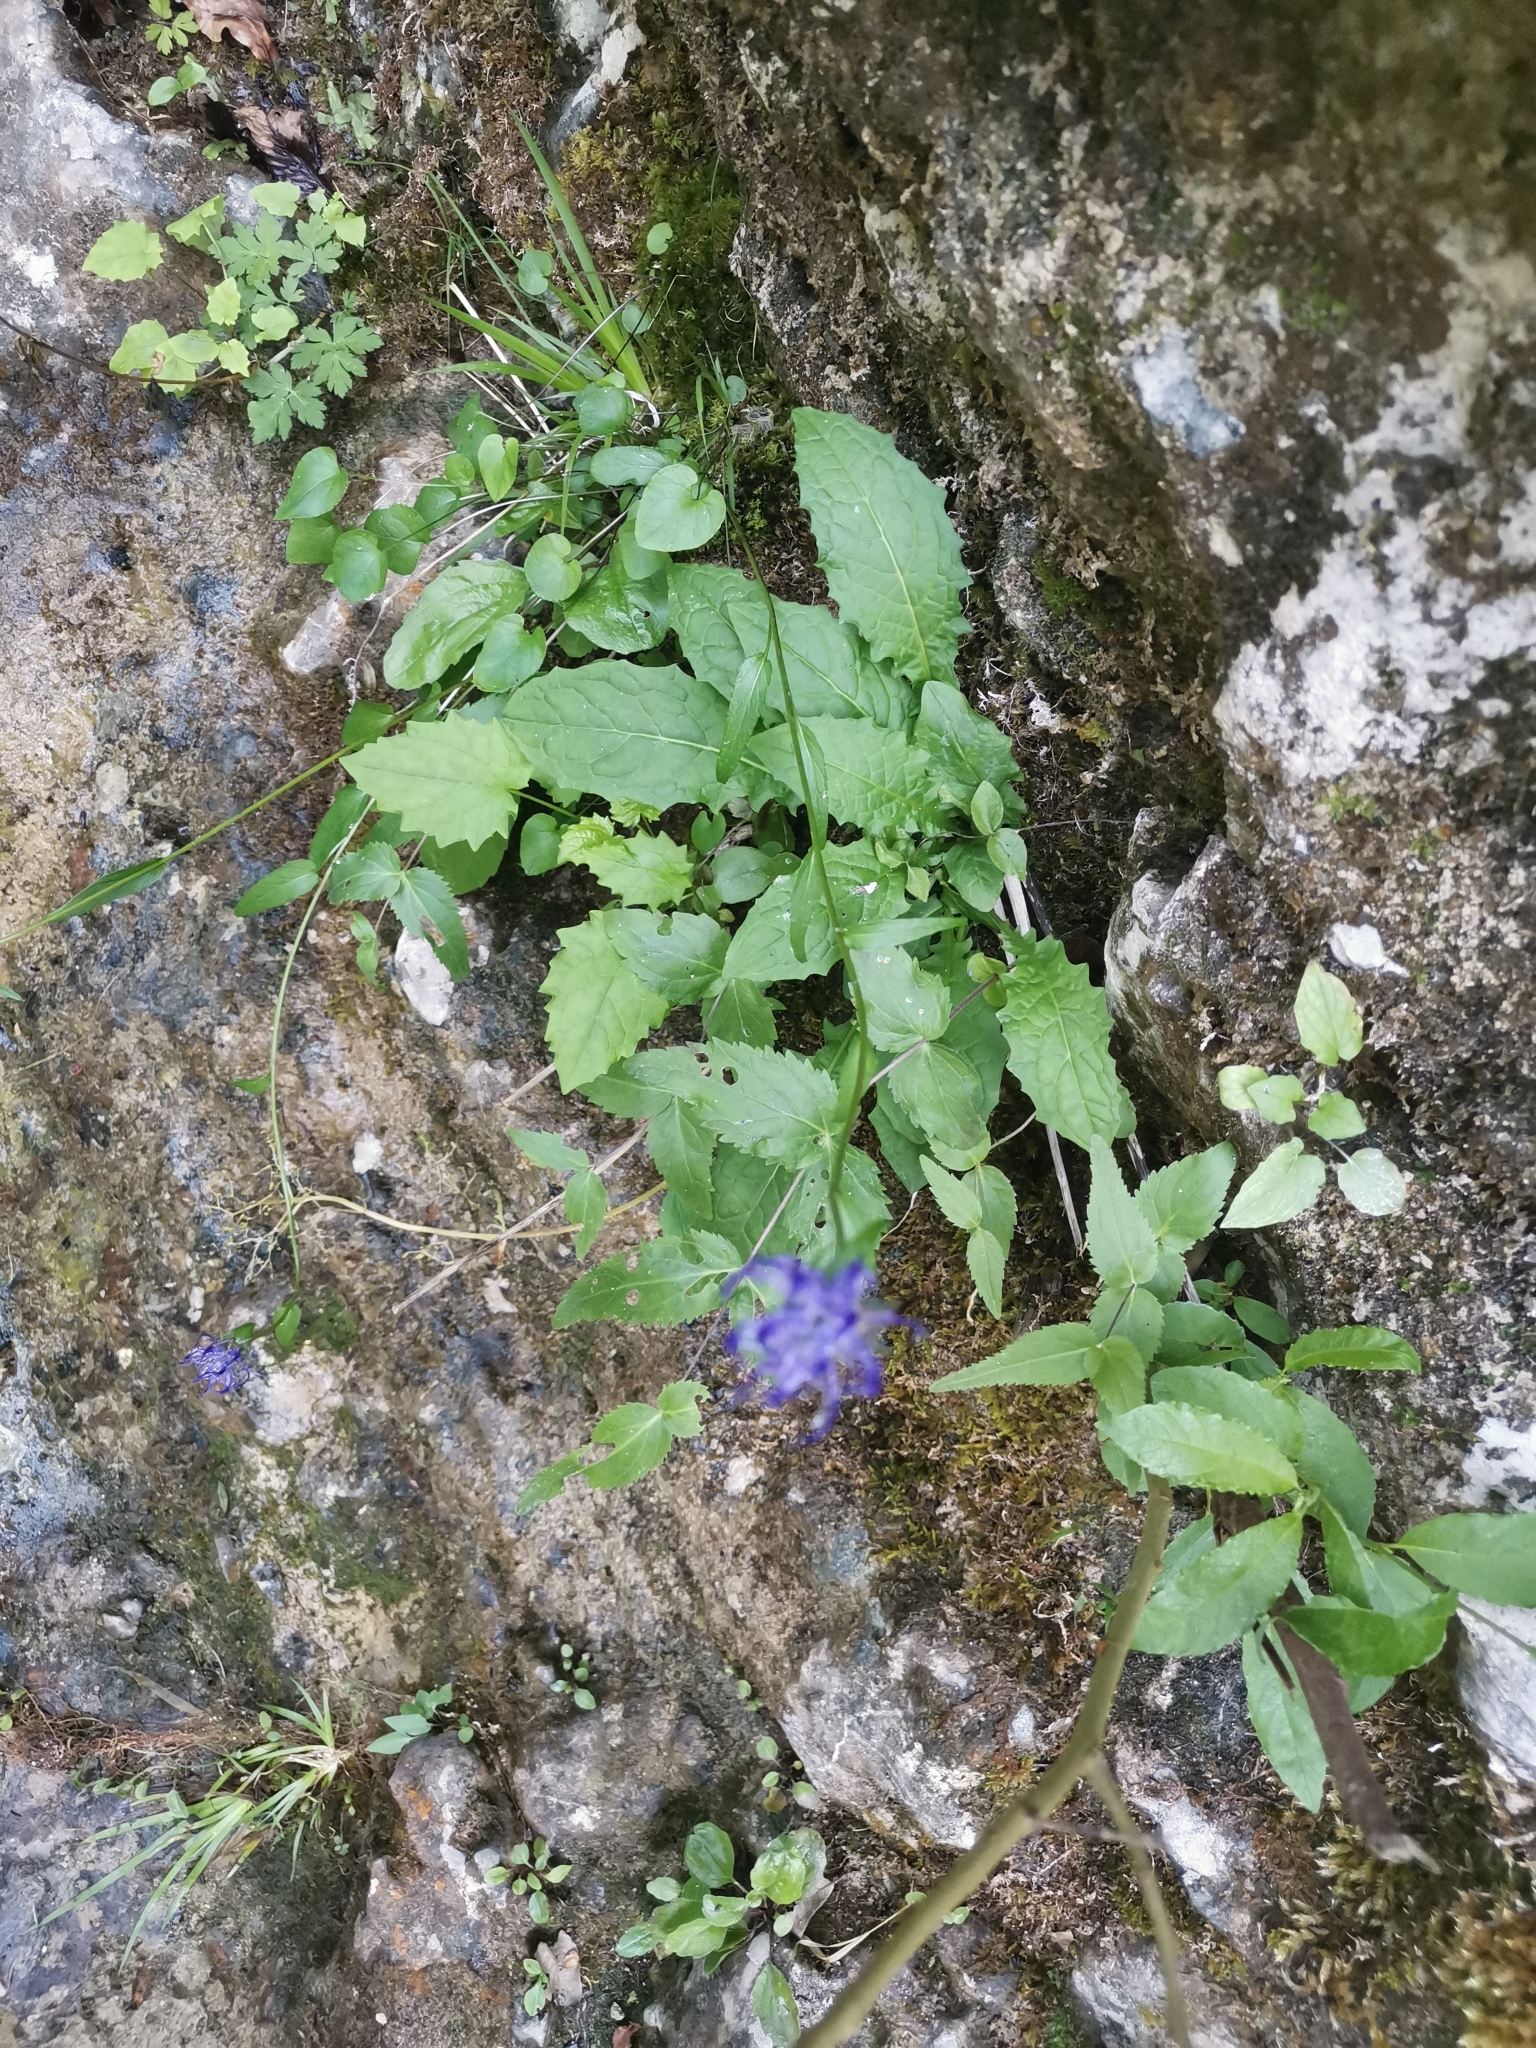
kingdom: Plantae
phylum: Tracheophyta
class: Magnoliopsida
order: Asterales
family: Campanulaceae
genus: Phyteuma
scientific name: Phyteuma orbiculare
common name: Round-headed rampion
